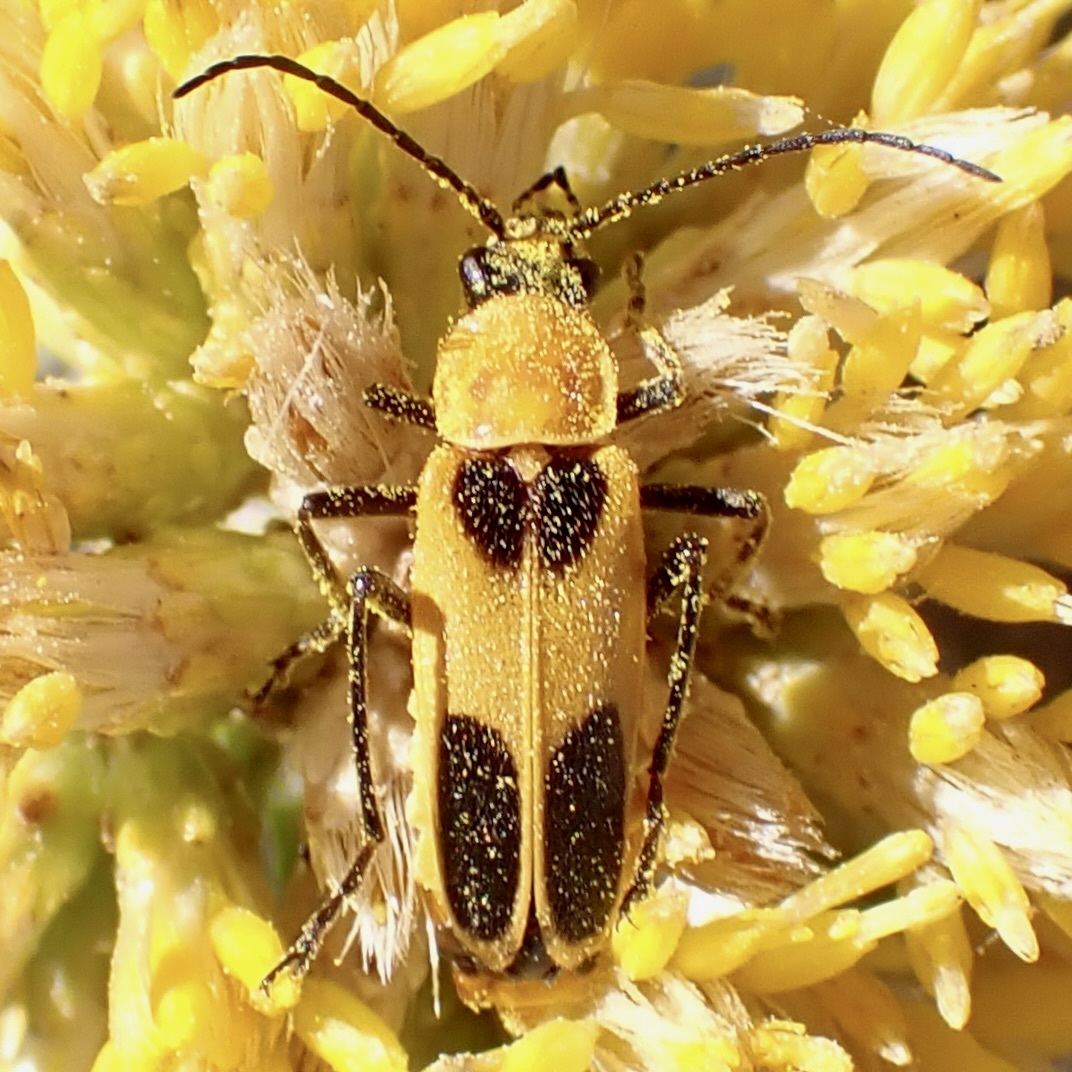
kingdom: Animalia
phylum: Arthropoda
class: Insecta
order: Coleoptera
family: Cantharidae
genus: Chauliognathus
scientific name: Chauliognathus omissus
